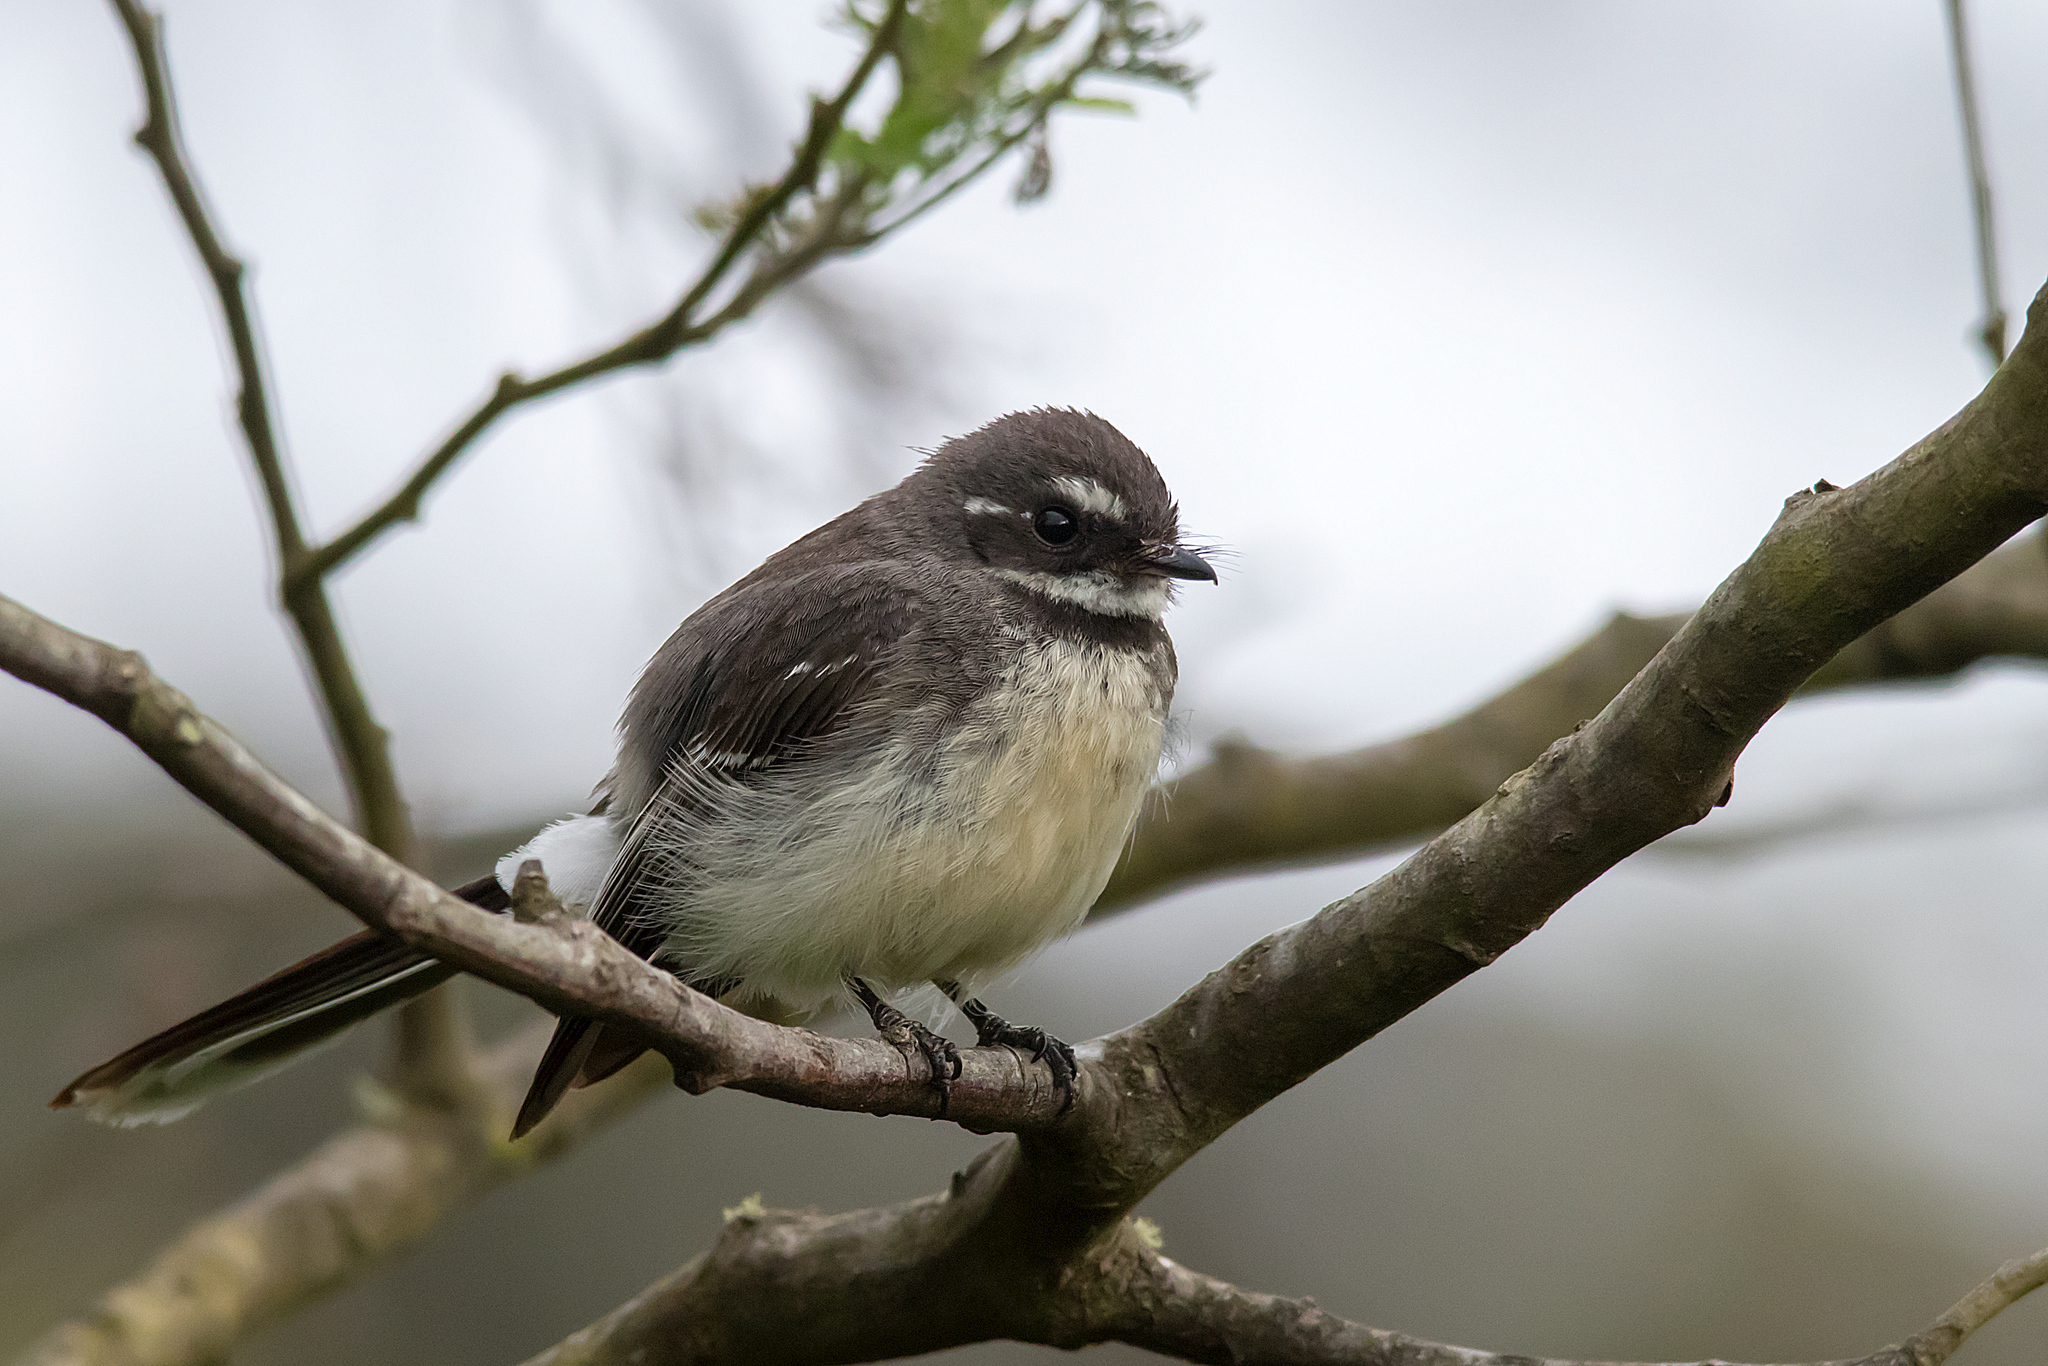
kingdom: Animalia
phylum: Chordata
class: Aves
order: Passeriformes
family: Rhipiduridae
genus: Rhipidura
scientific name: Rhipidura albiscapa
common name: Grey fantail
